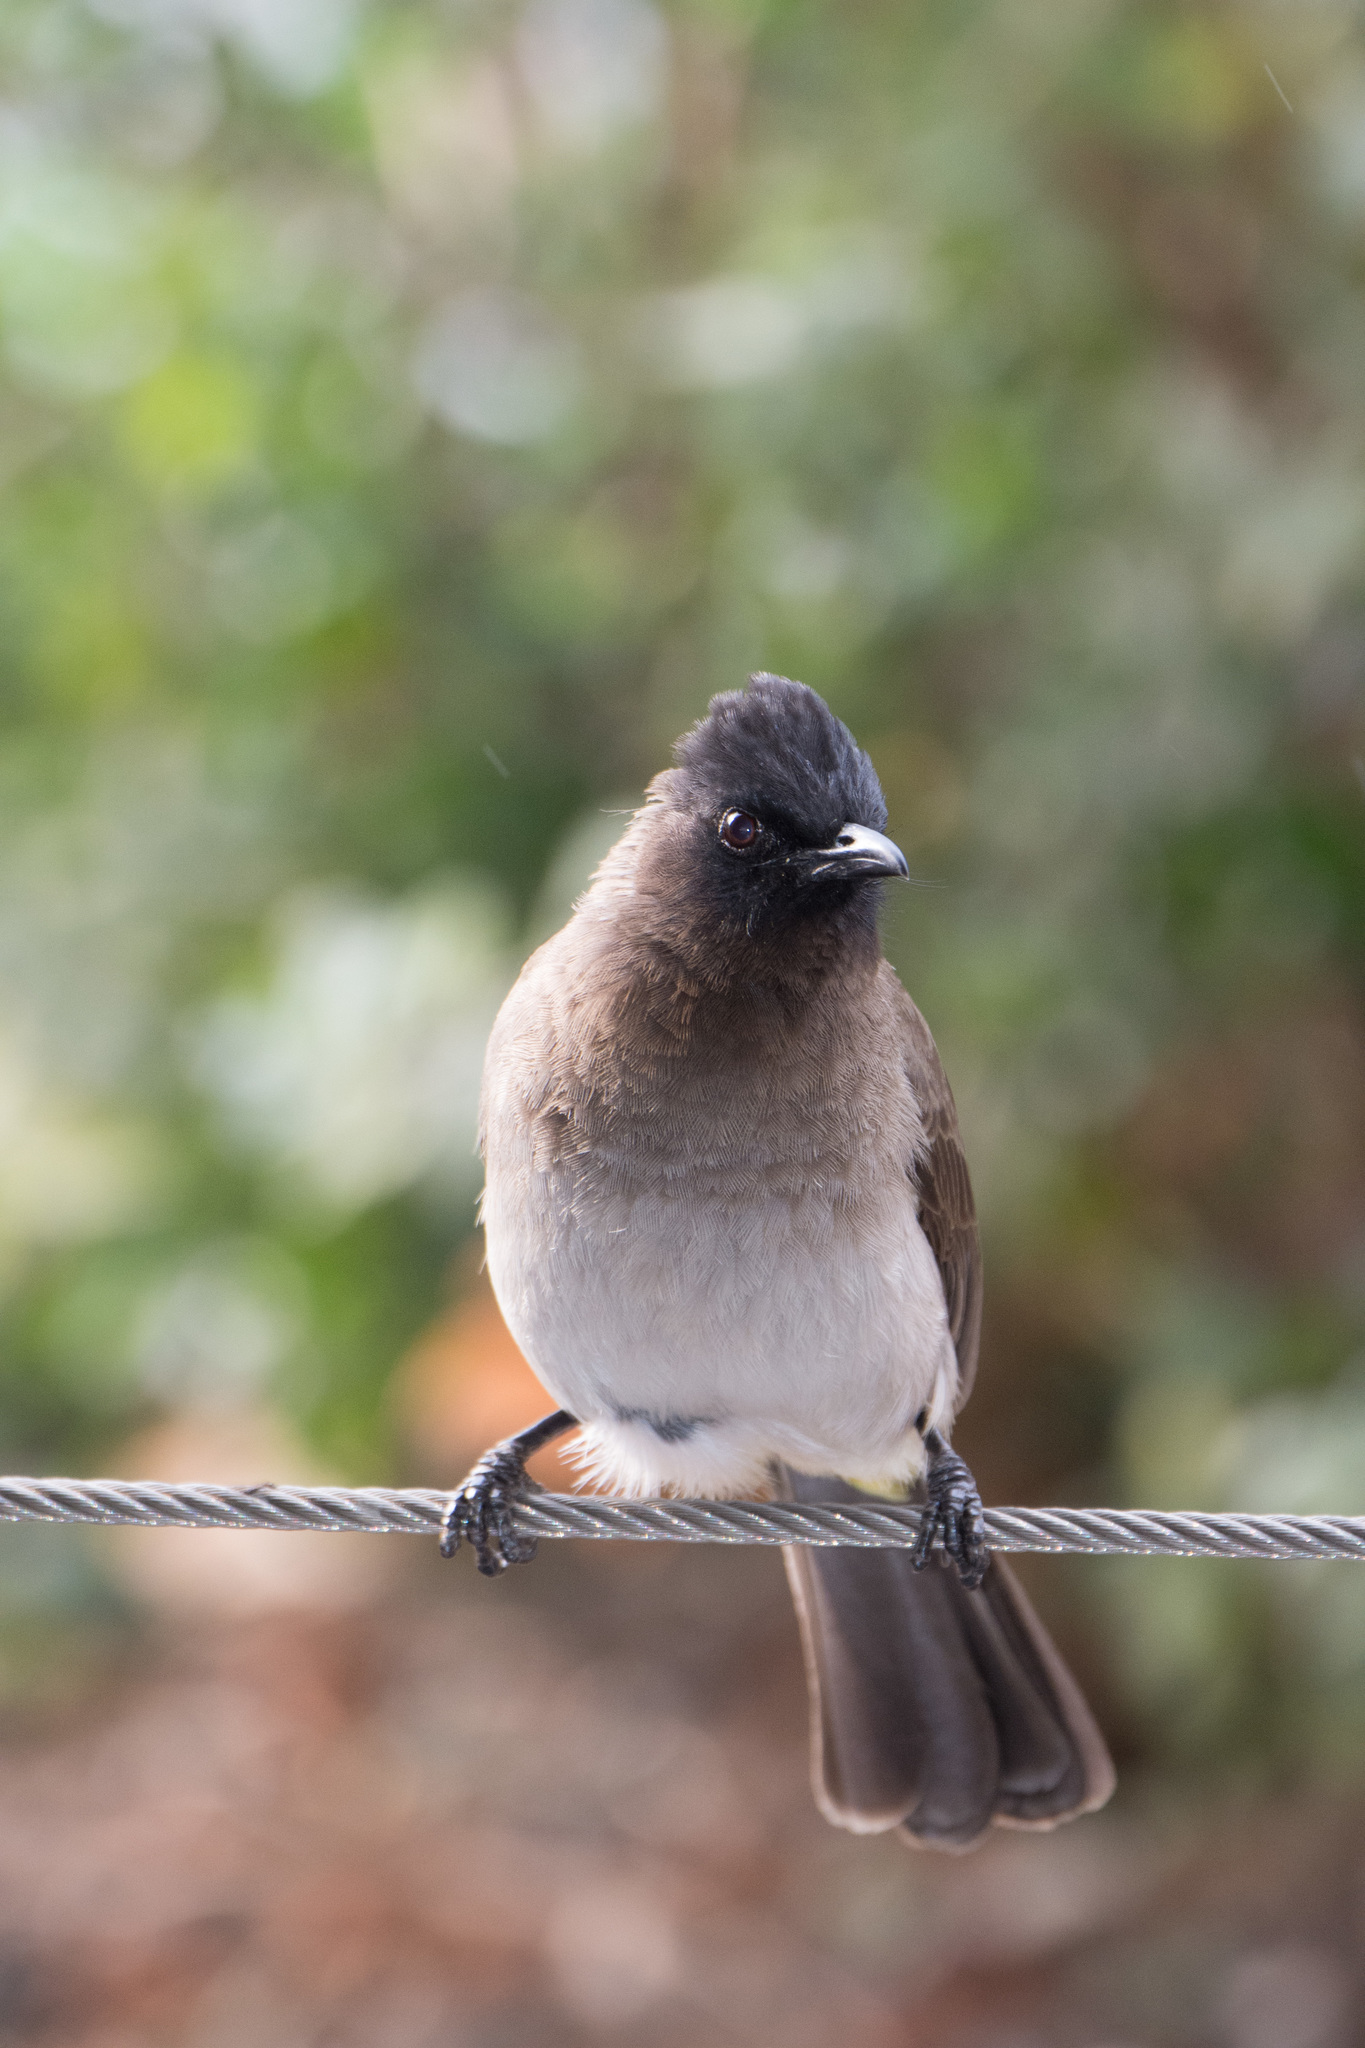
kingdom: Animalia
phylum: Chordata
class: Aves
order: Passeriformes
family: Pycnonotidae
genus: Pycnonotus
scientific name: Pycnonotus barbatus
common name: Common bulbul
